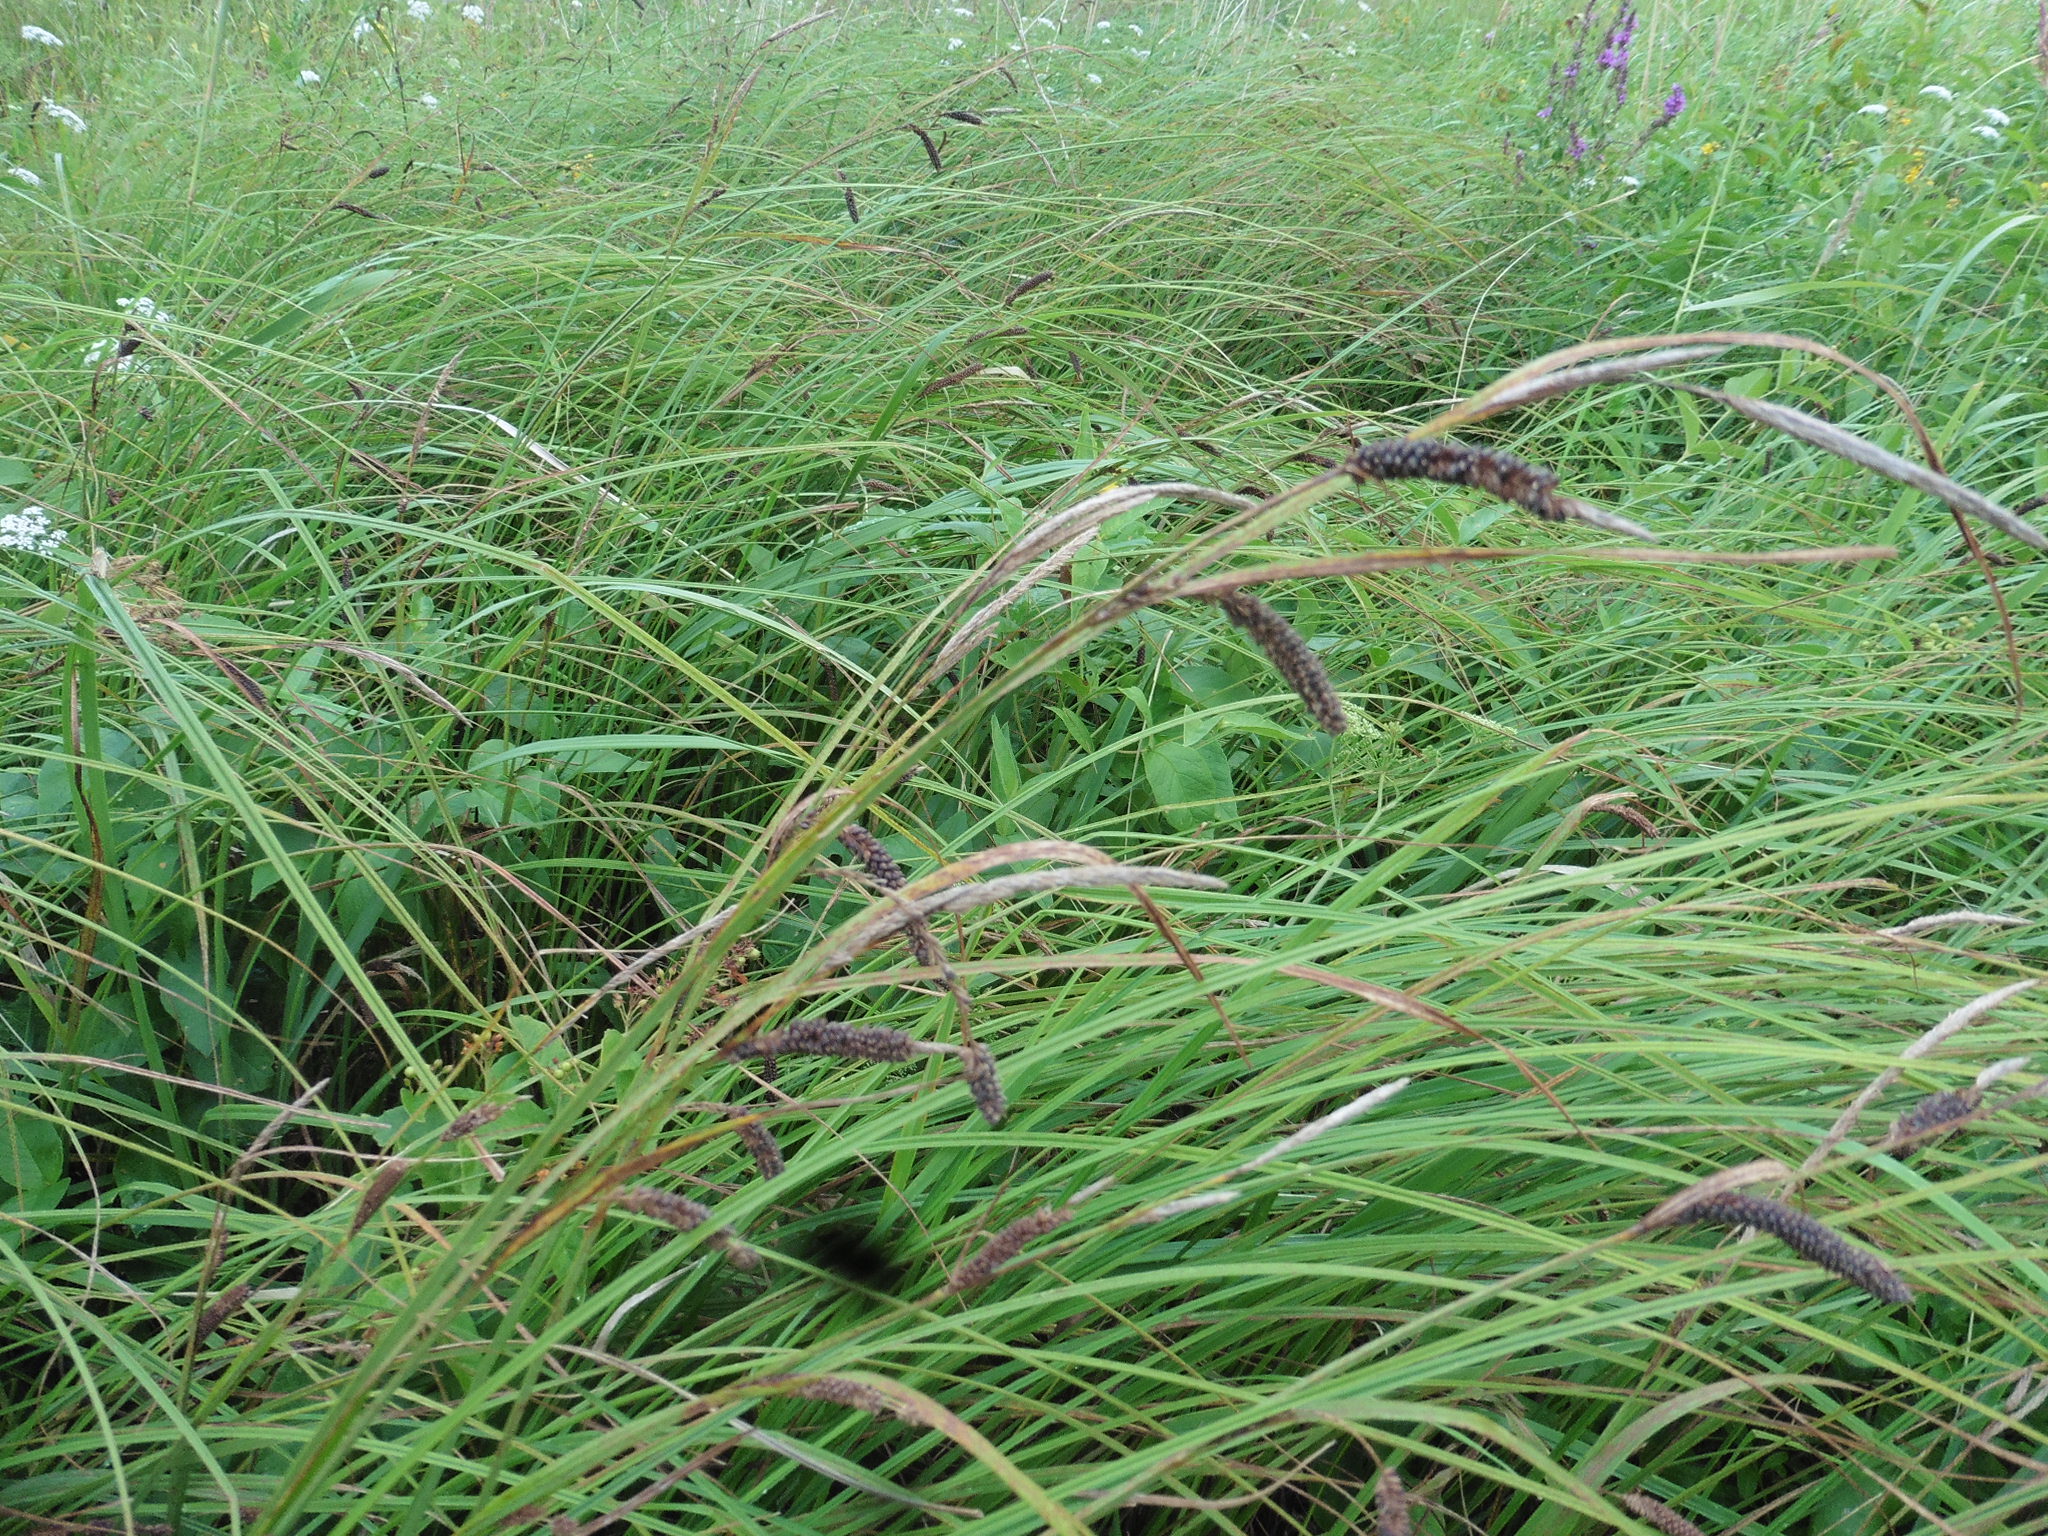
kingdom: Plantae
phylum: Tracheophyta
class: Liliopsida
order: Poales
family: Cyperaceae
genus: Carex
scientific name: Carex acuta
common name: Slender tufted-sedge
